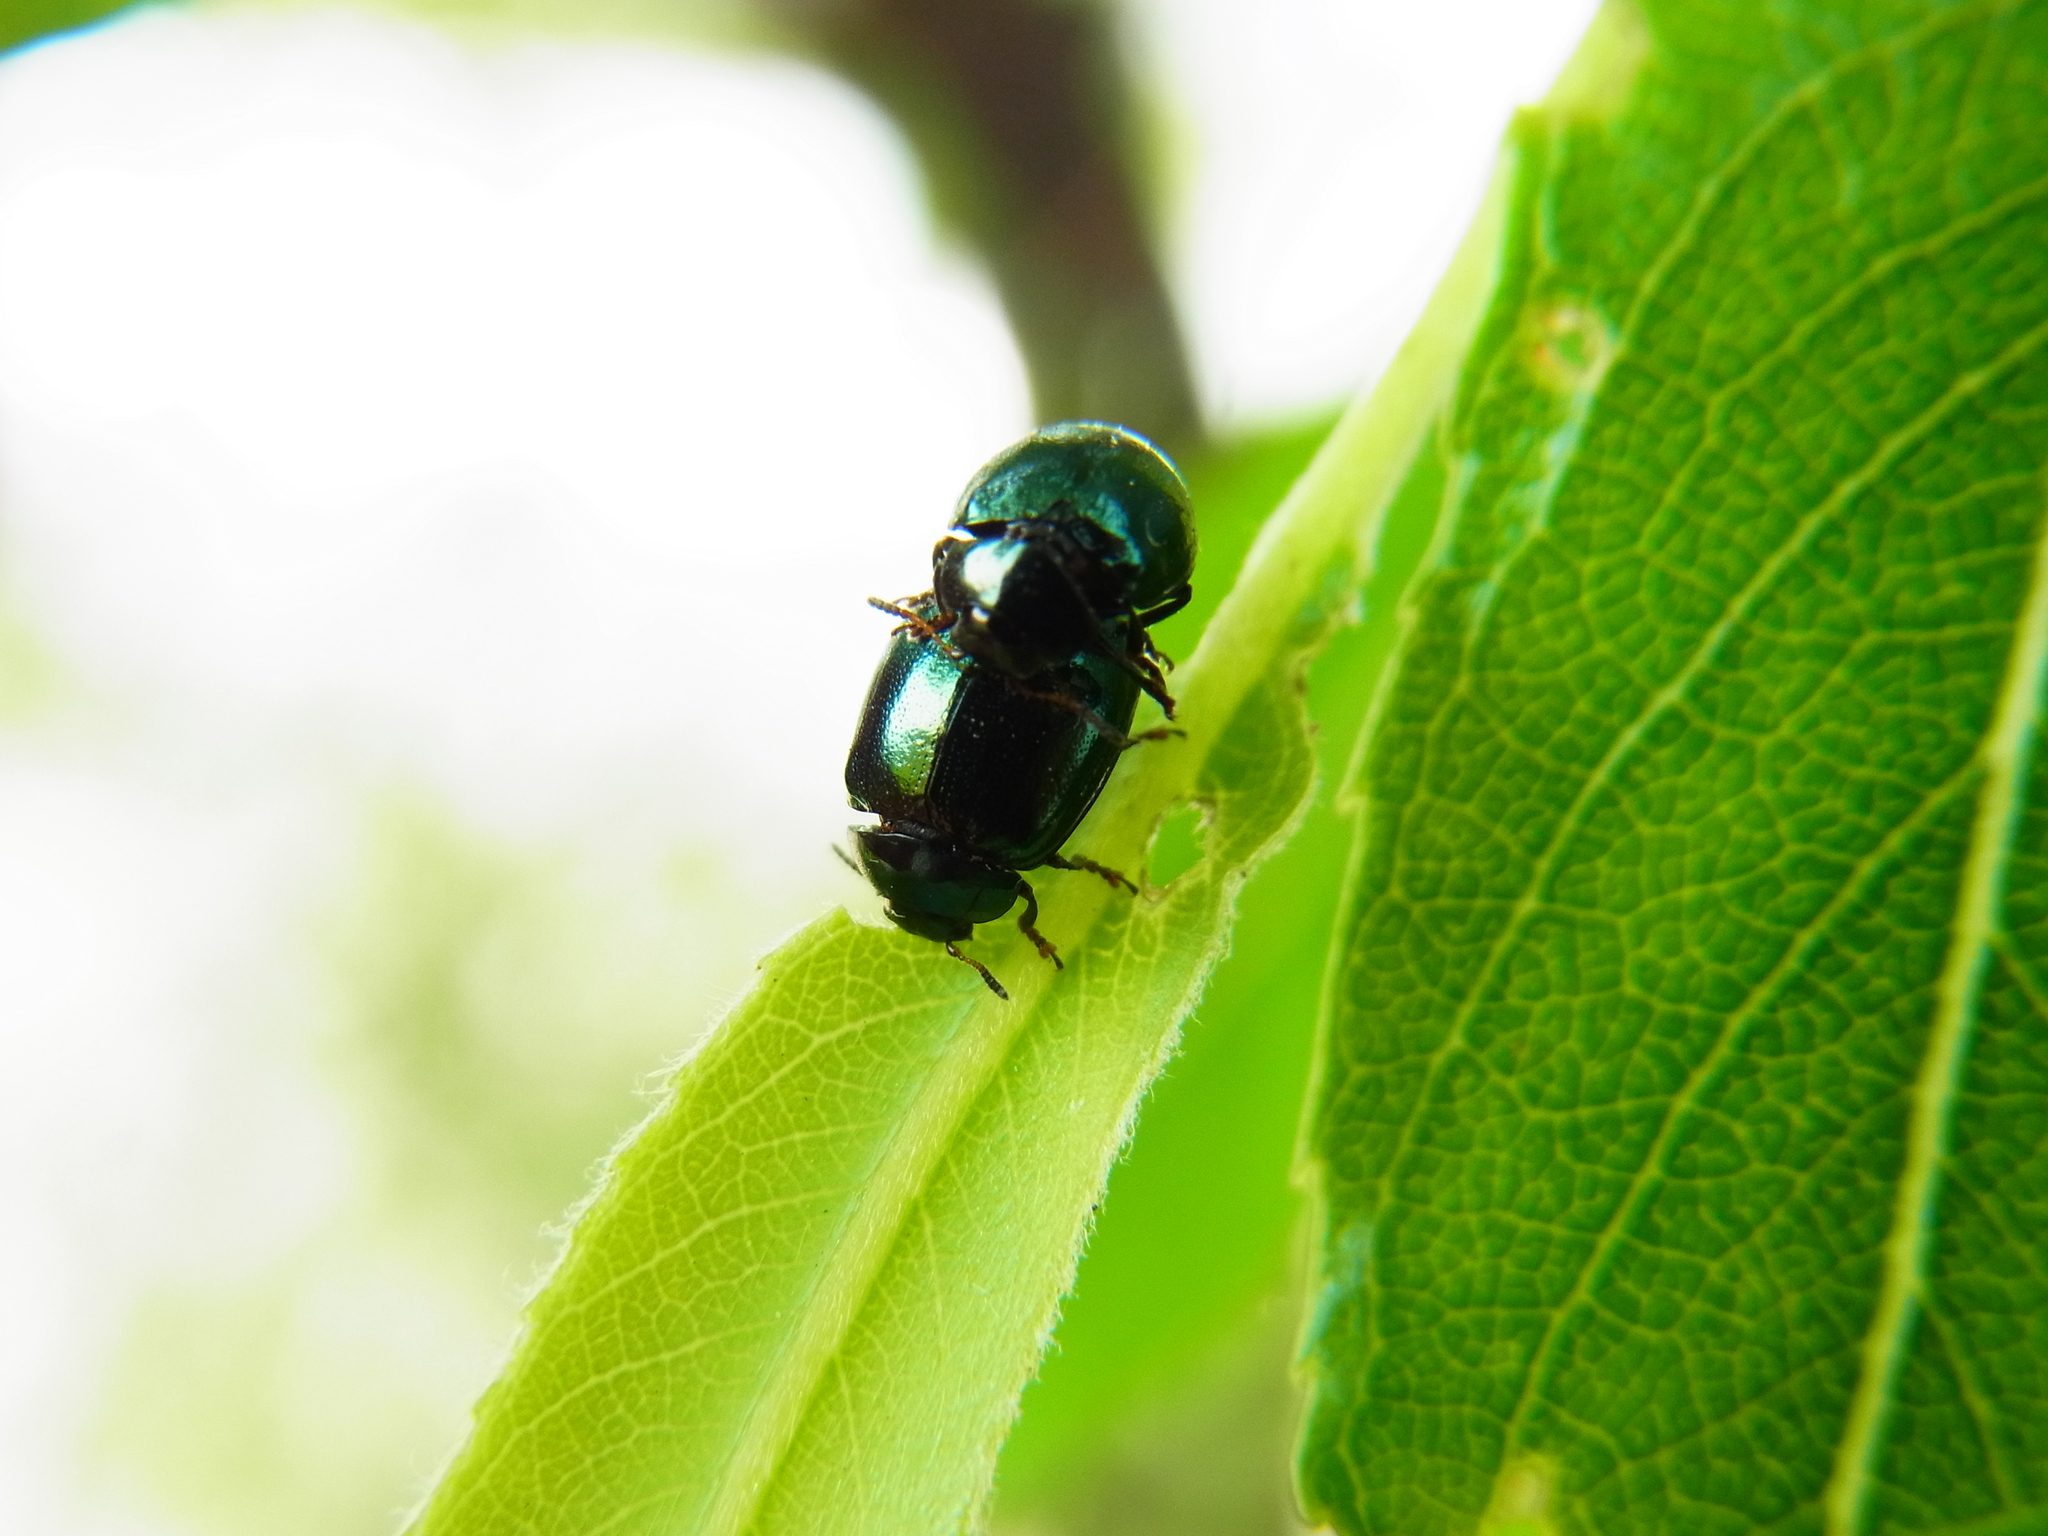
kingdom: Animalia
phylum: Arthropoda
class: Insecta
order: Coleoptera
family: Chrysomelidae
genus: Plagiodera
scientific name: Plagiodera versicolora
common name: Imported willow leaf beetle
